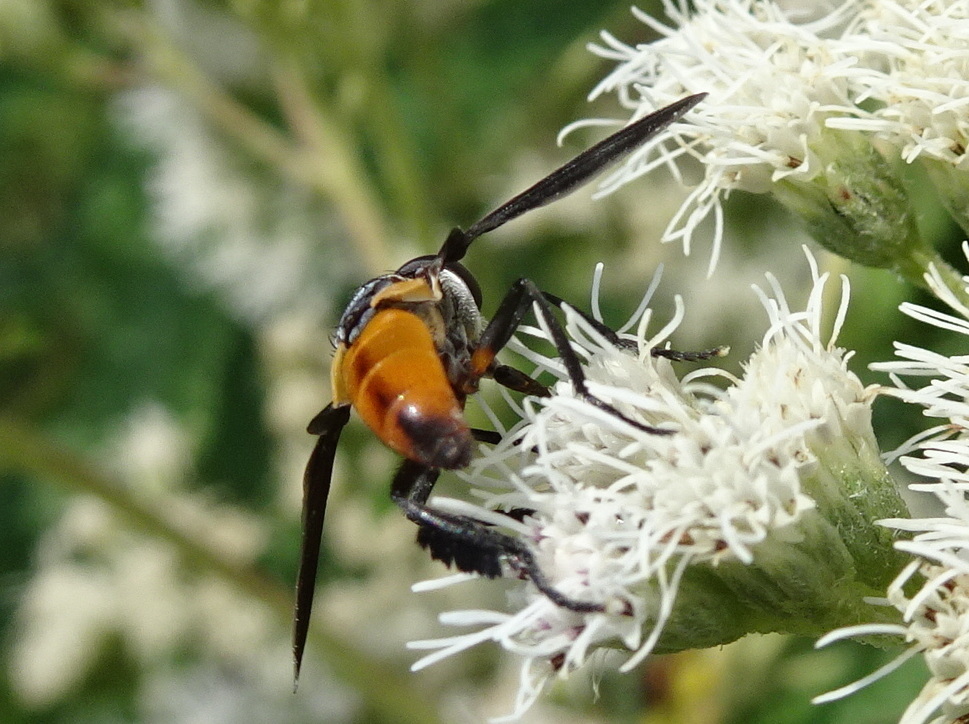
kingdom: Animalia
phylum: Arthropoda
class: Insecta
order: Diptera
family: Tachinidae
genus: Trichopoda
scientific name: Trichopoda pennipes
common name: Tachinid fly
